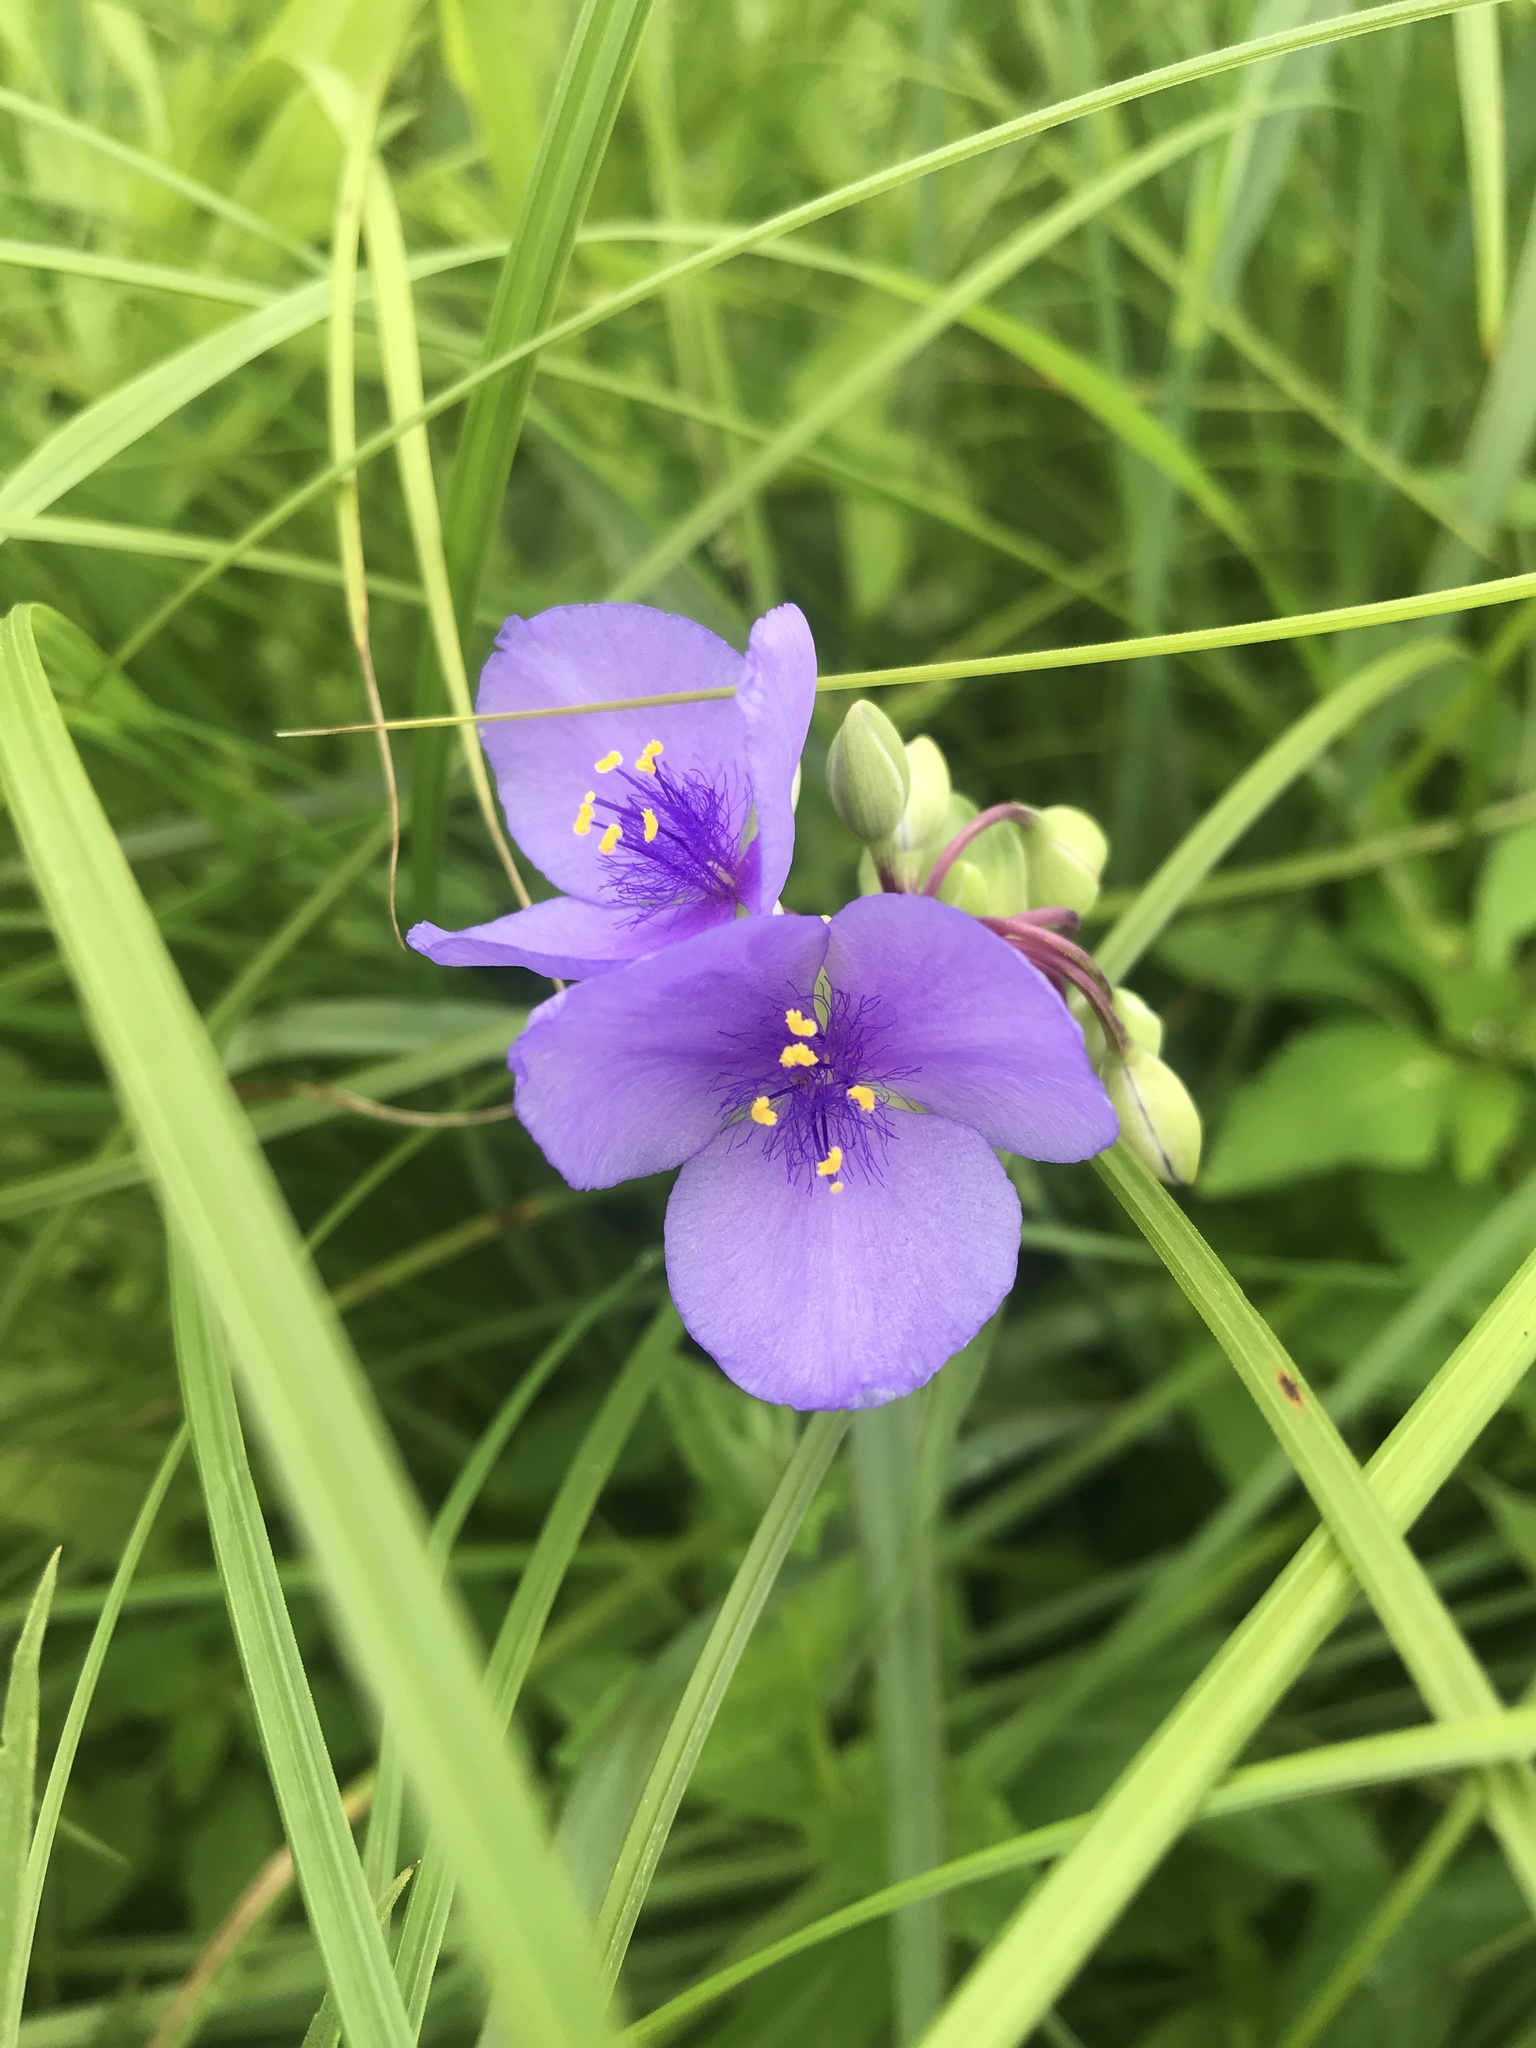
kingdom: Plantae
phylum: Tracheophyta
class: Liliopsida
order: Commelinales
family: Commelinaceae
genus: Tradescantia
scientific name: Tradescantia ohiensis
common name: Ohio spiderwort
